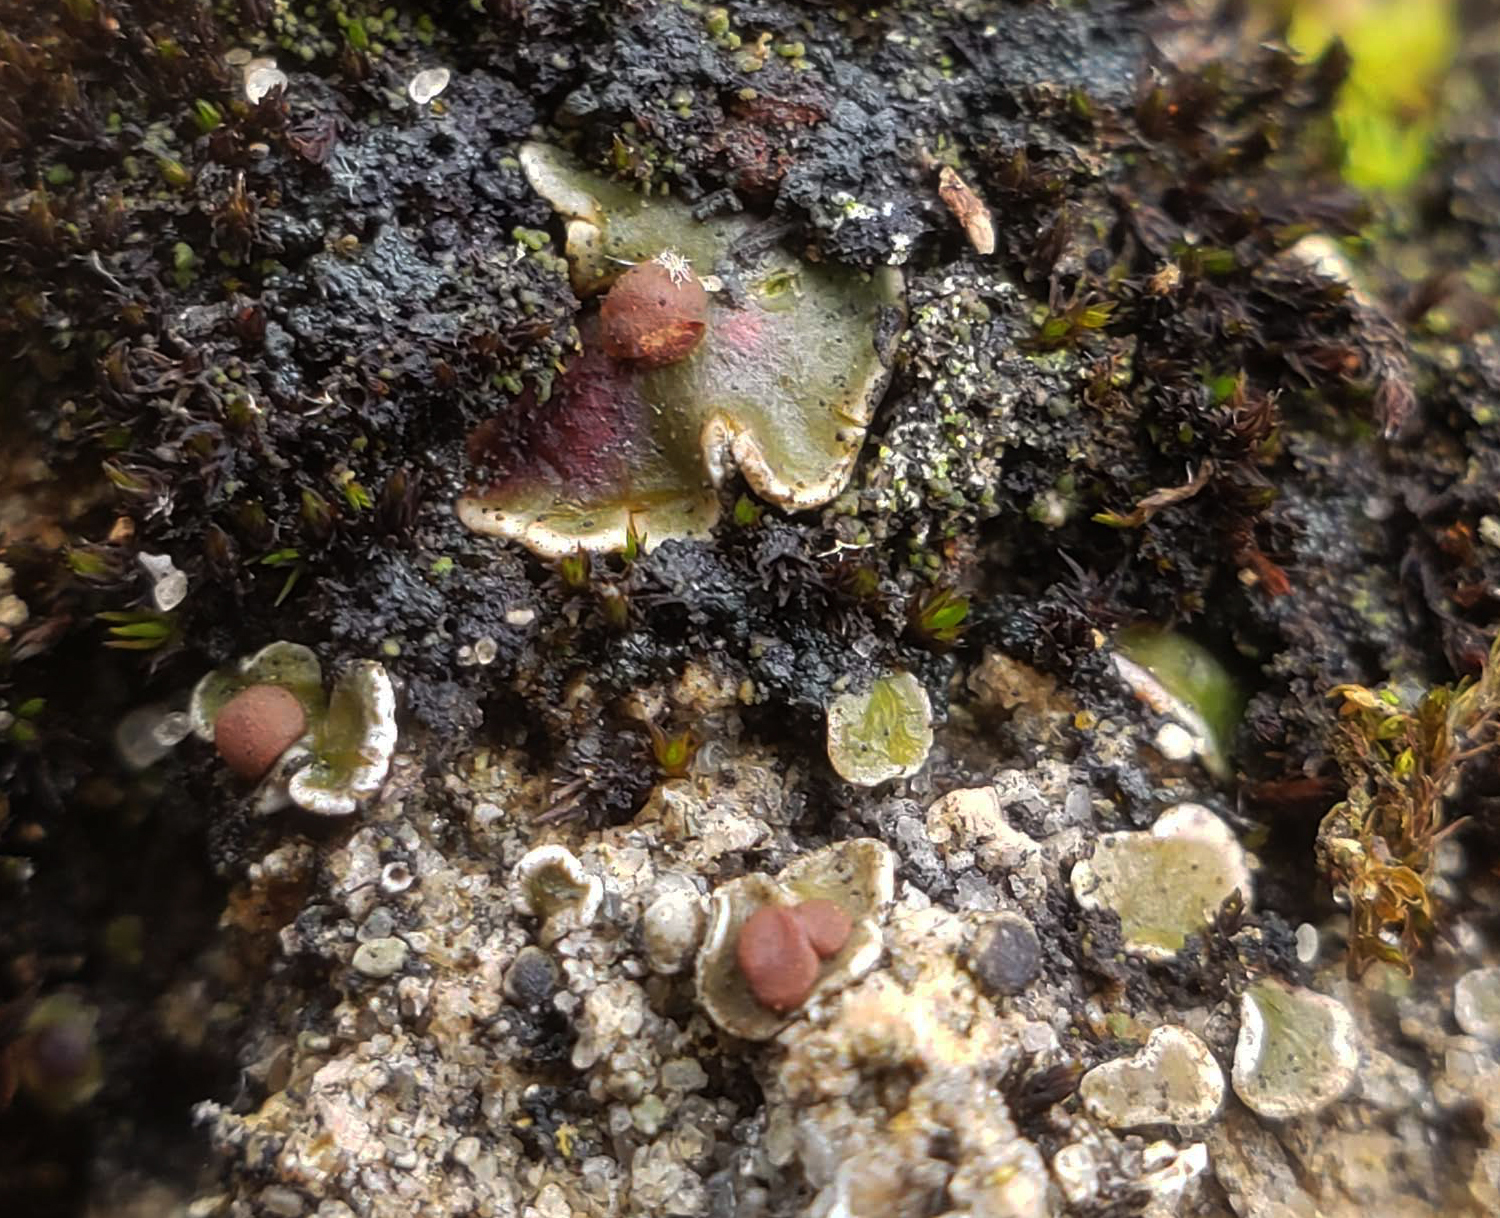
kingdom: Fungi
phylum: Ascomycota
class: Lecanoromycetes
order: Lecanorales
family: Psoraceae
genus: Psora
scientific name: Psora pseudorussellii
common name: Bordered scale lichen
